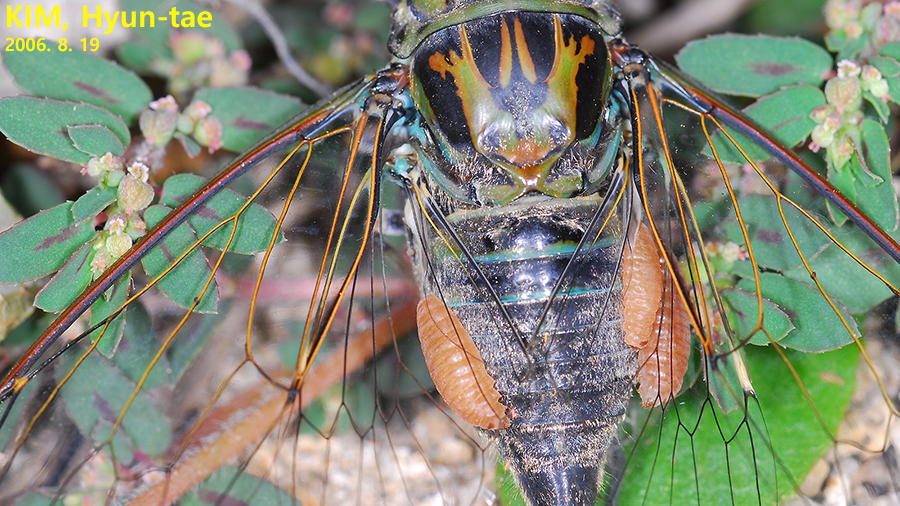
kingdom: Animalia
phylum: Arthropoda
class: Insecta
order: Lepidoptera
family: Epipyropidae
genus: Epipomponia
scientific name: Epipomponia nawai
